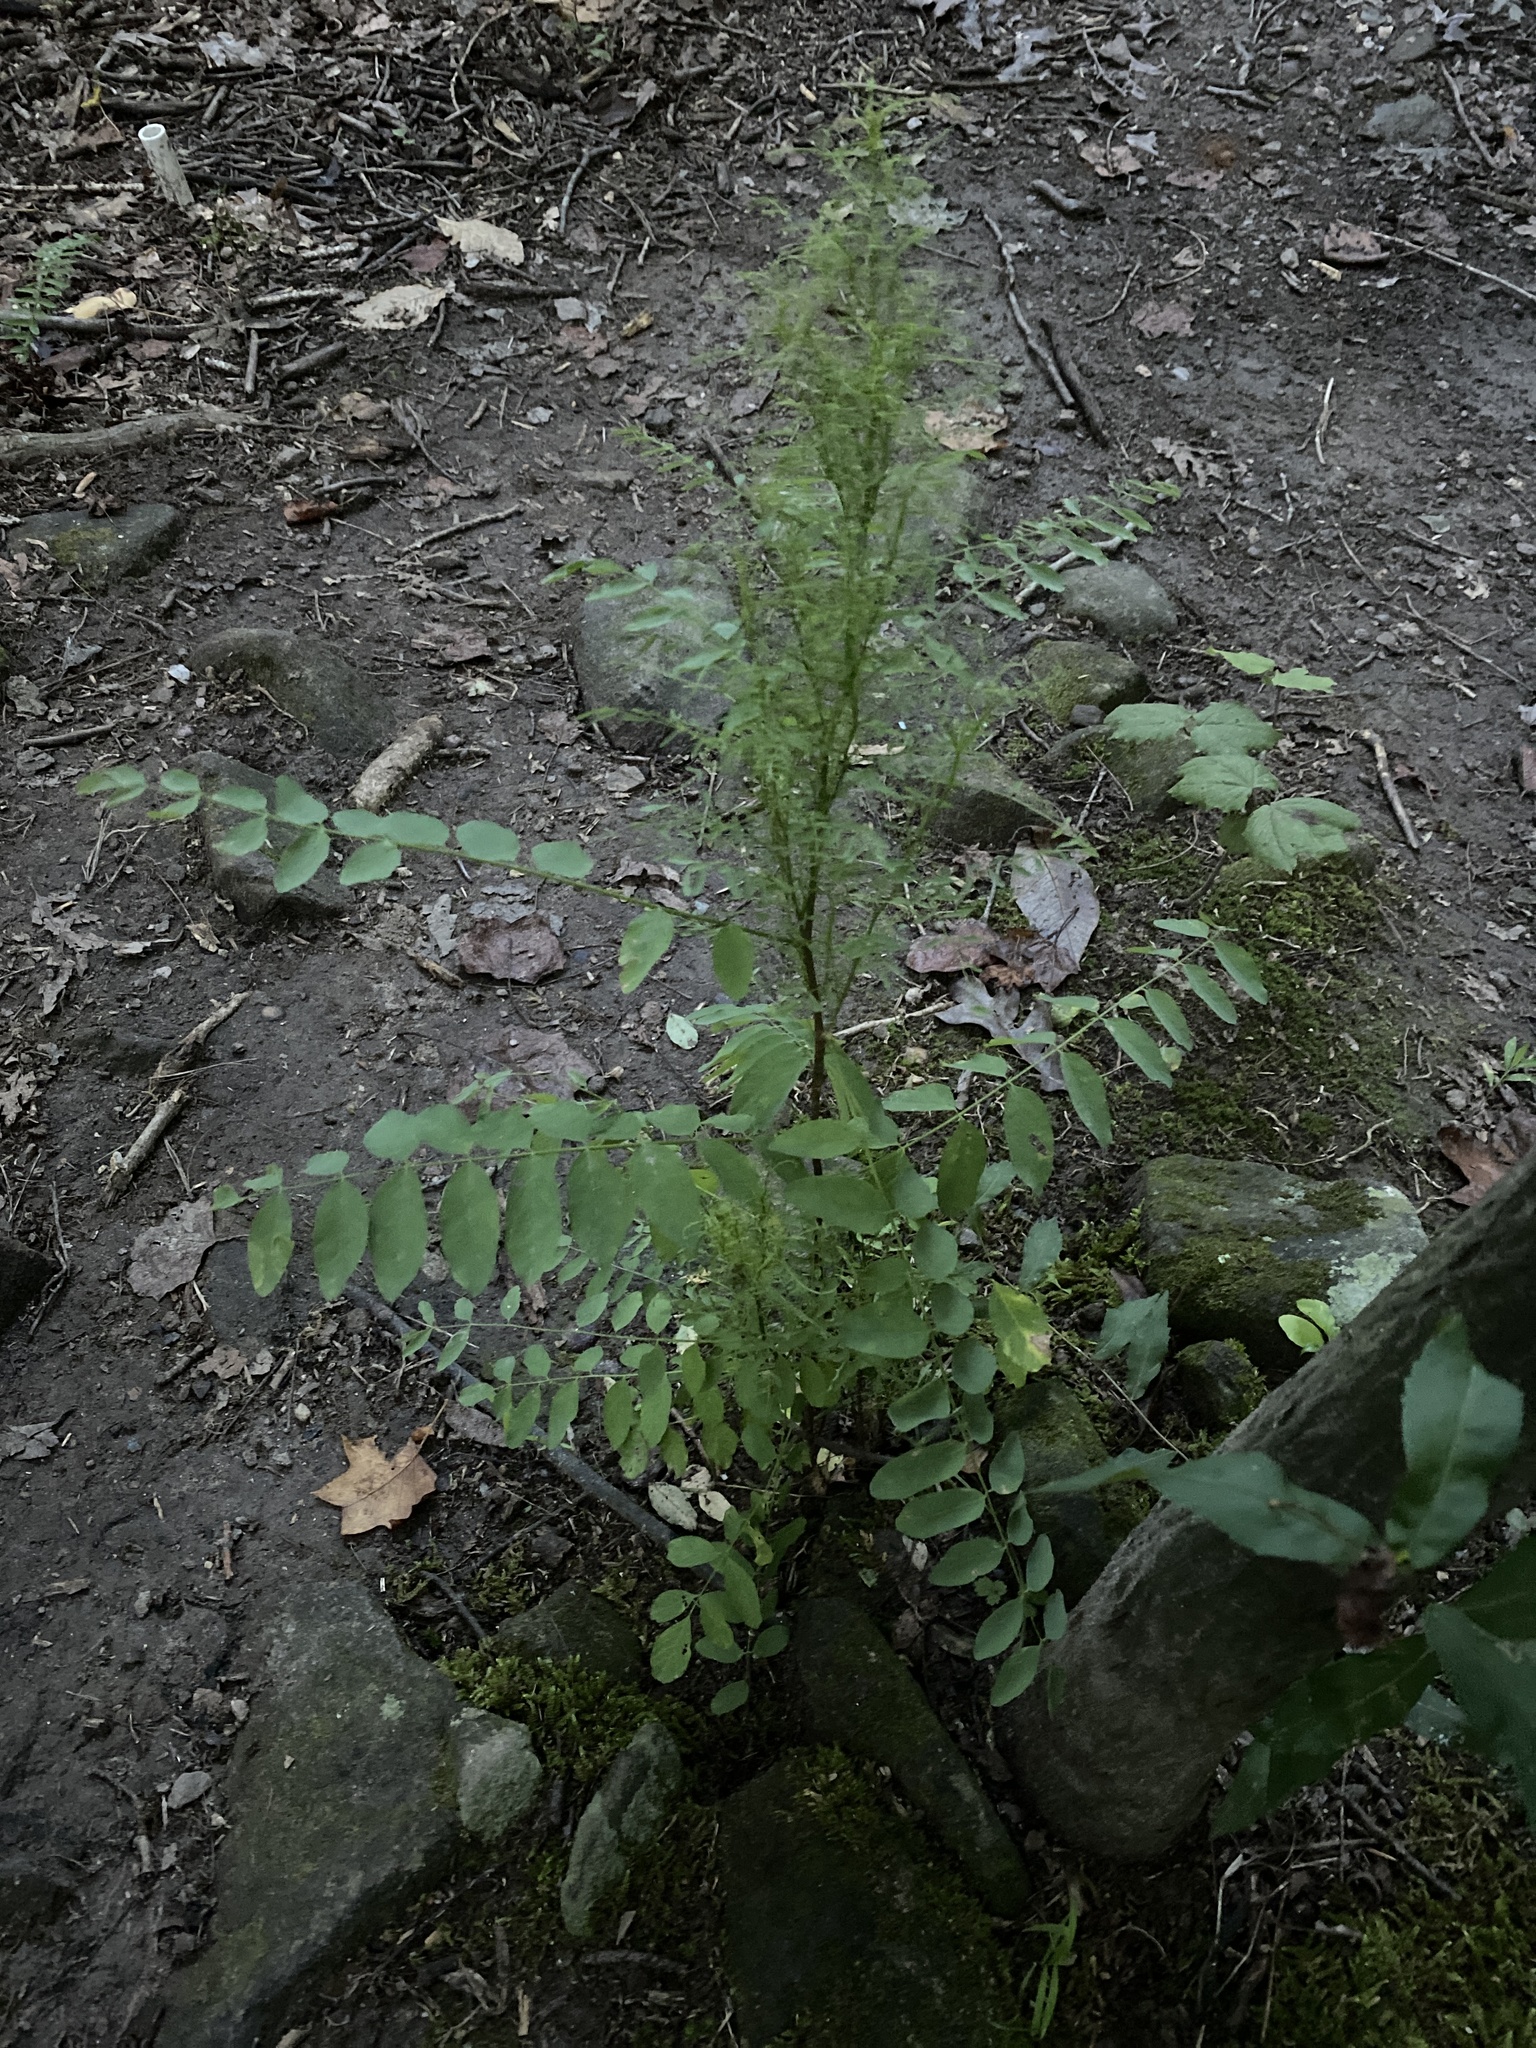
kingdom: Plantae
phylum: Tracheophyta
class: Magnoliopsida
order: Fabales
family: Fabaceae
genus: Robinia
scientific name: Robinia pseudoacacia
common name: Black locust
